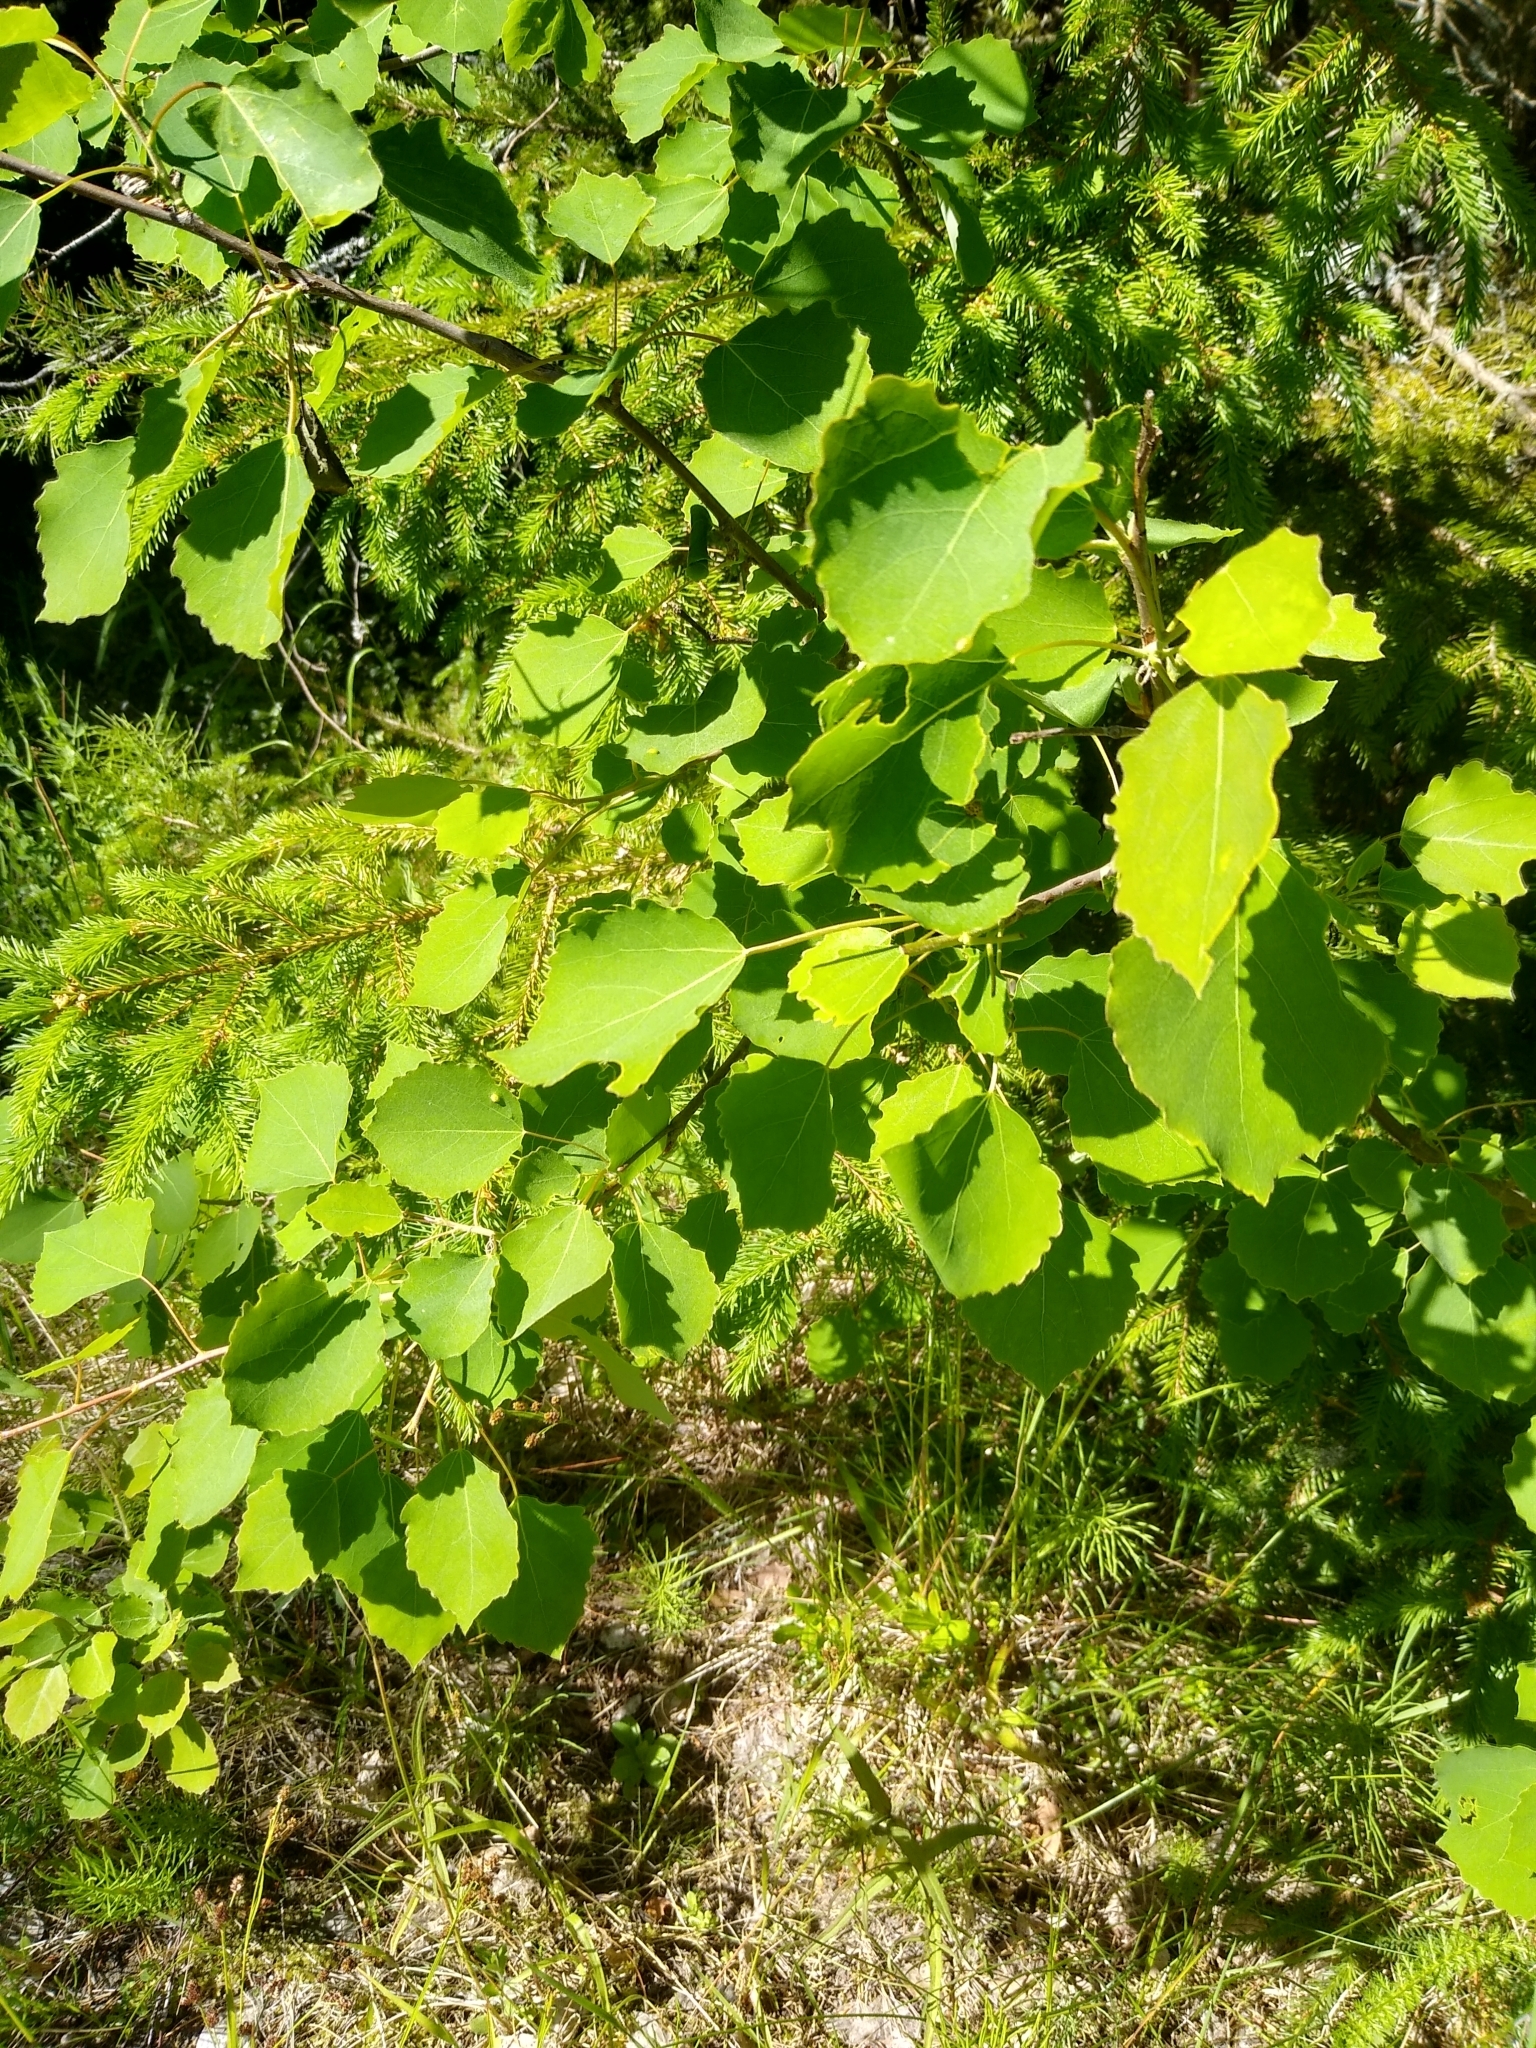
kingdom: Plantae
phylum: Tracheophyta
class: Magnoliopsida
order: Malpighiales
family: Salicaceae
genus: Populus
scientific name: Populus tremula
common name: European aspen
